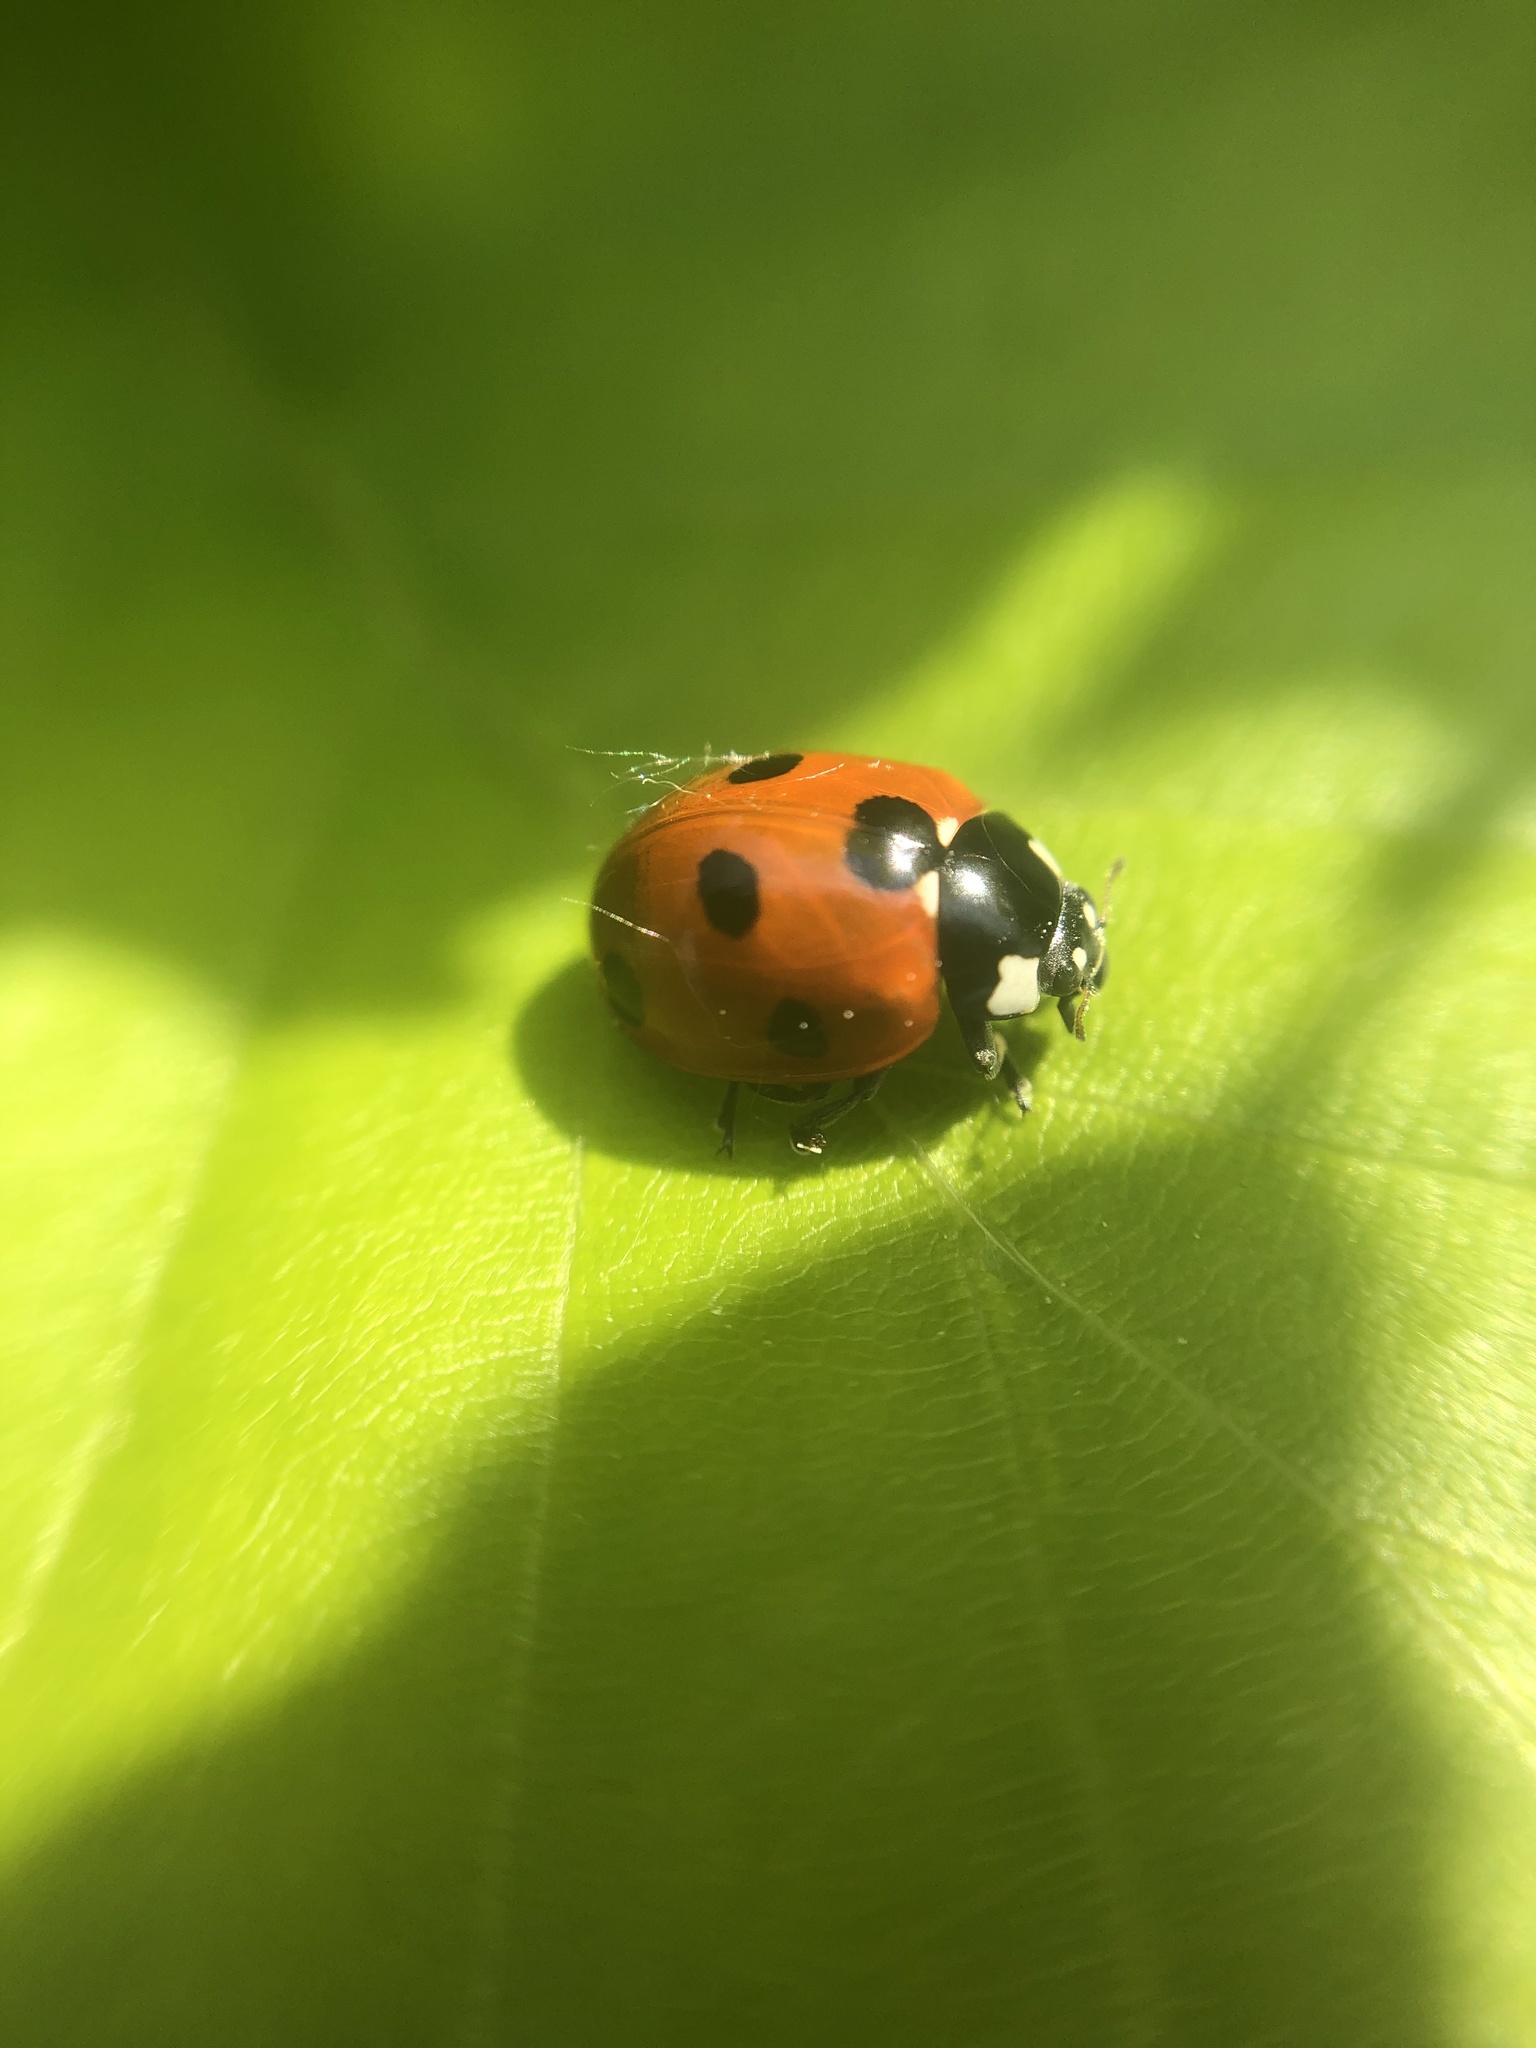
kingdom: Animalia
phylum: Arthropoda
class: Insecta
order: Coleoptera
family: Coccinellidae
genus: Coccinella
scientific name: Coccinella septempunctata
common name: Sevenspotted lady beetle
